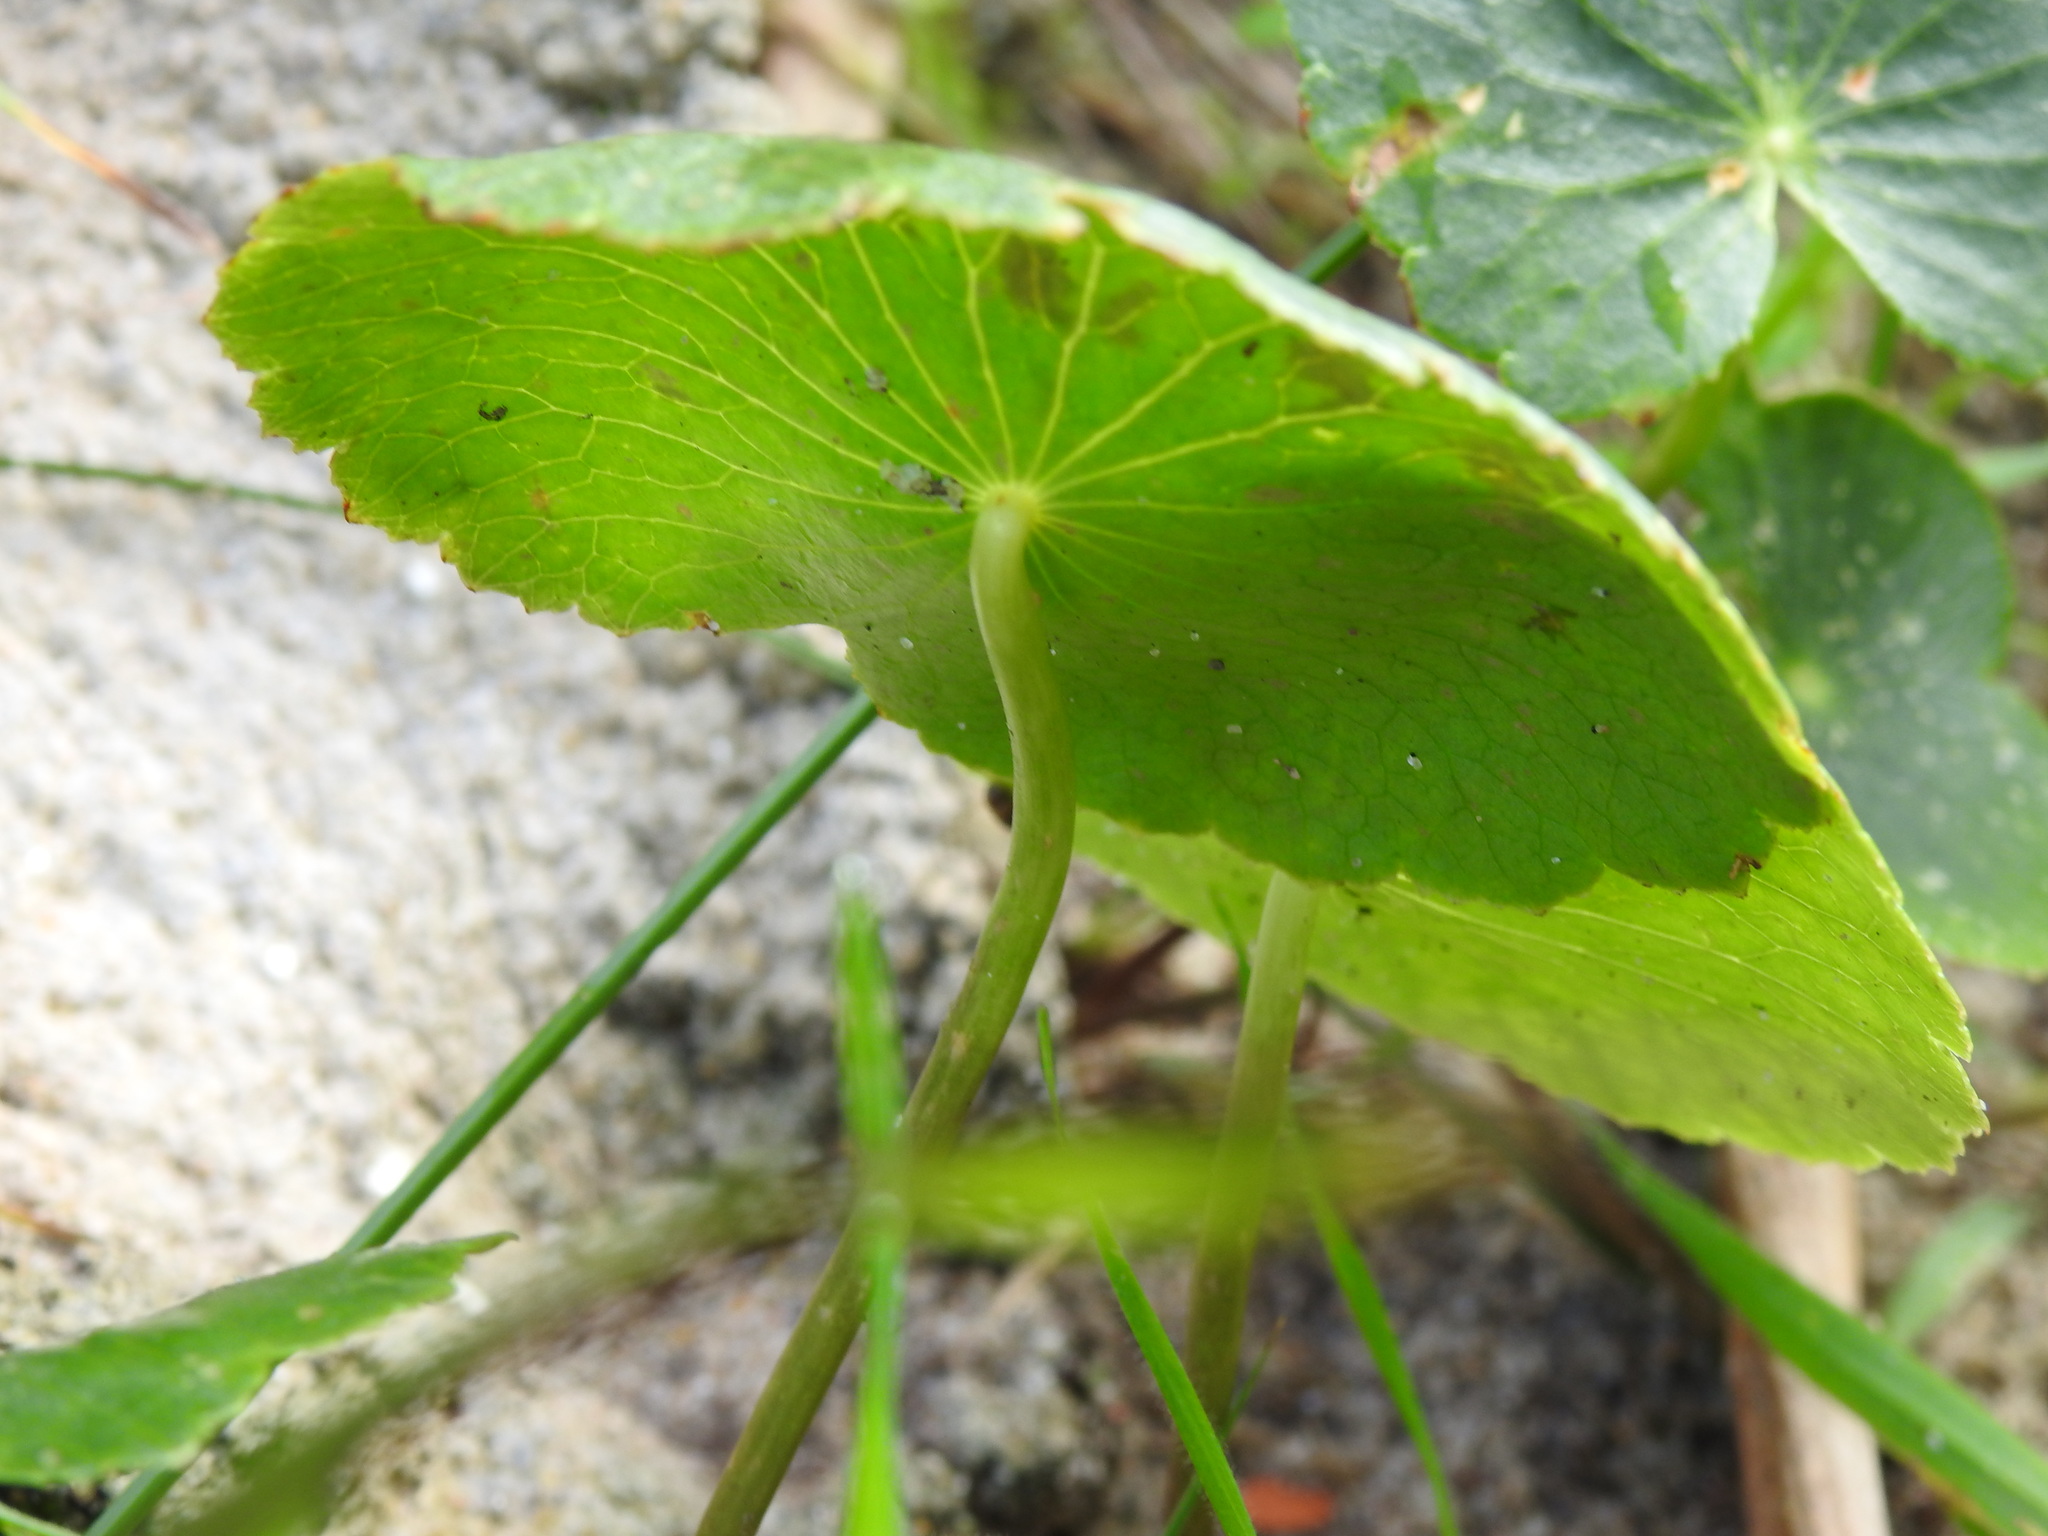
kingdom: Plantae
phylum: Tracheophyta
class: Magnoliopsida
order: Apiales
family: Araliaceae
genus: Hydrocotyle
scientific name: Hydrocotyle bonariensis
